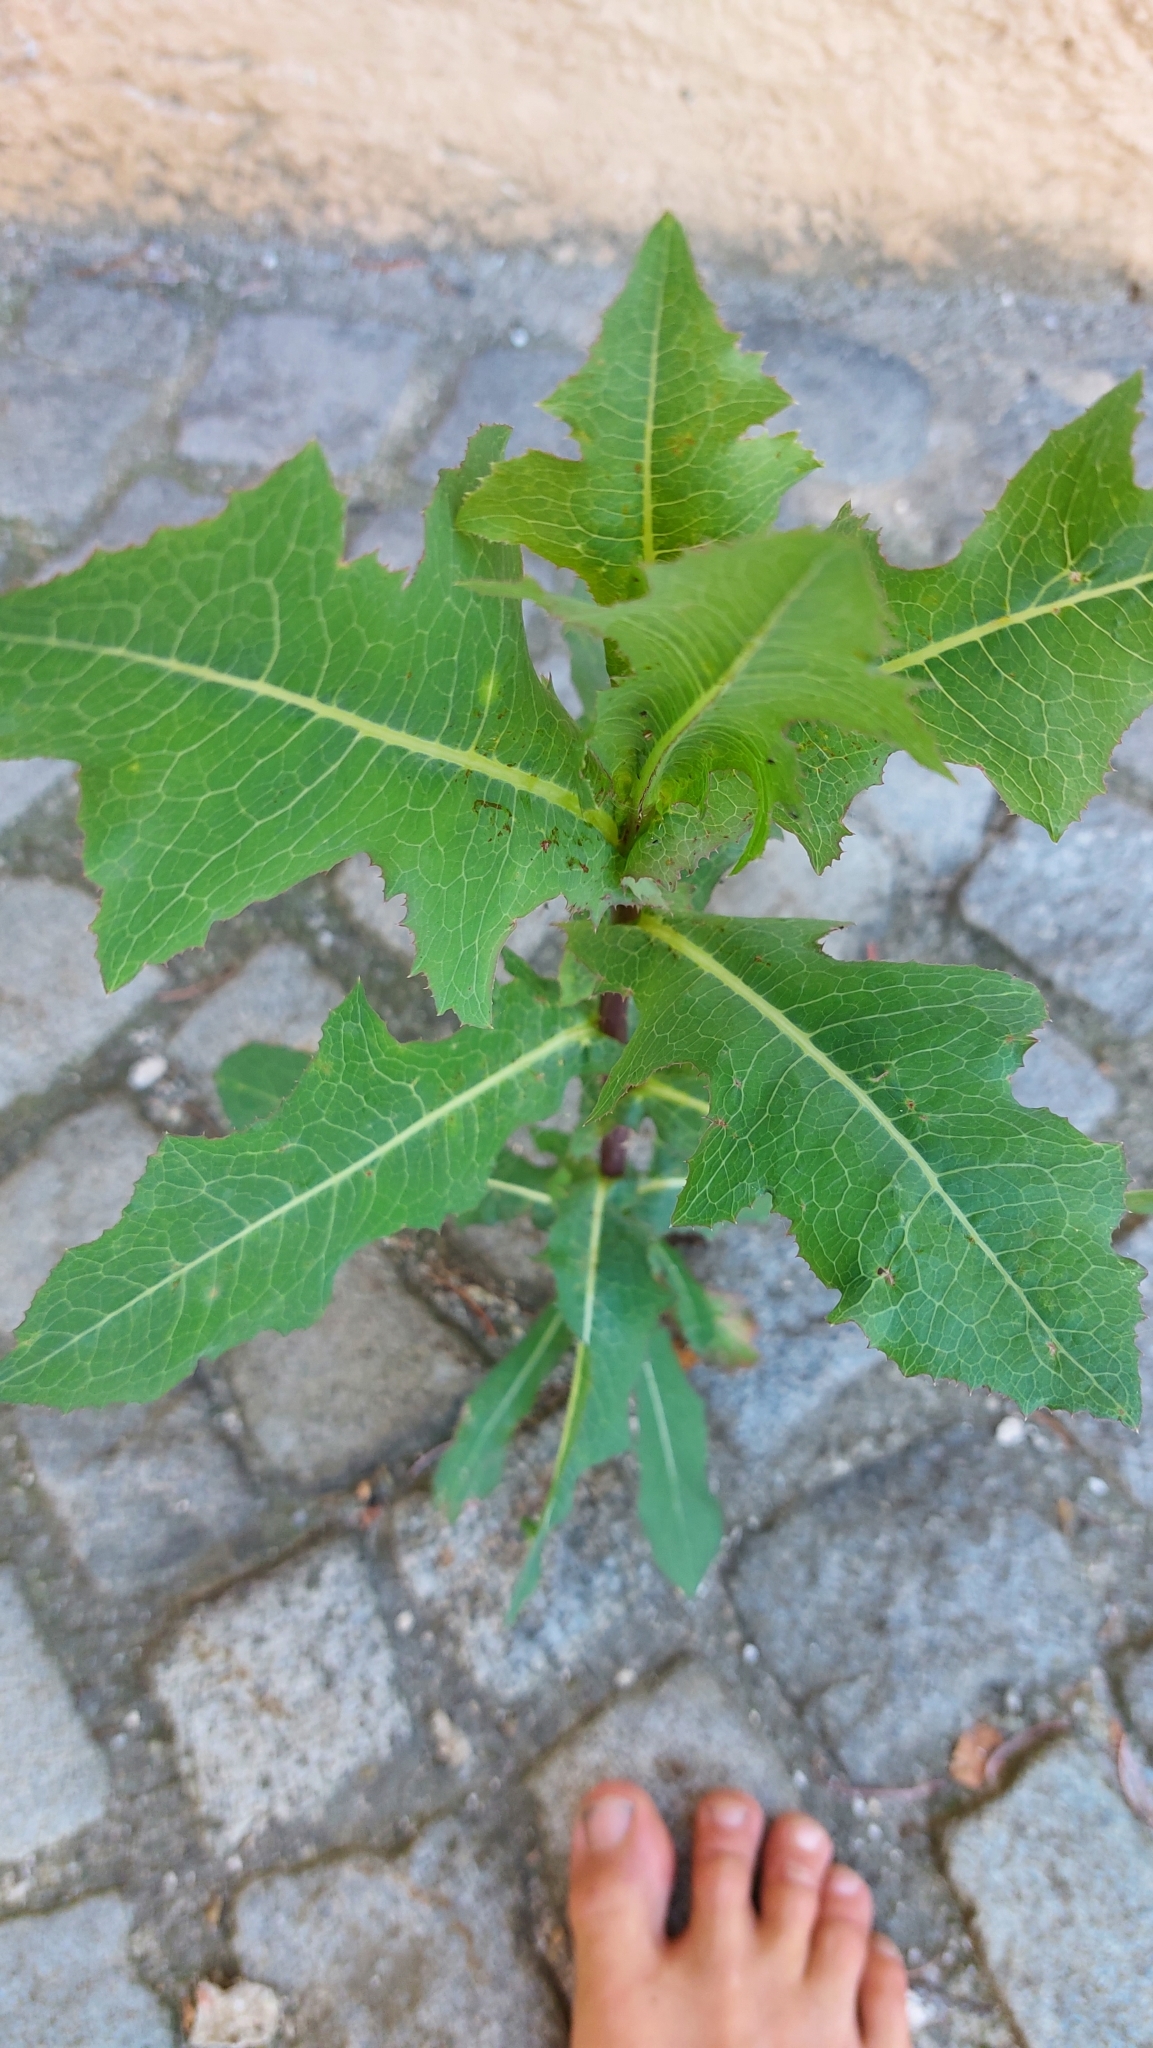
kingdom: Plantae
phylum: Tracheophyta
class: Magnoliopsida
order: Asterales
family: Asteraceae
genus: Lactuca
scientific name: Lactuca serriola
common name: Prickly lettuce
